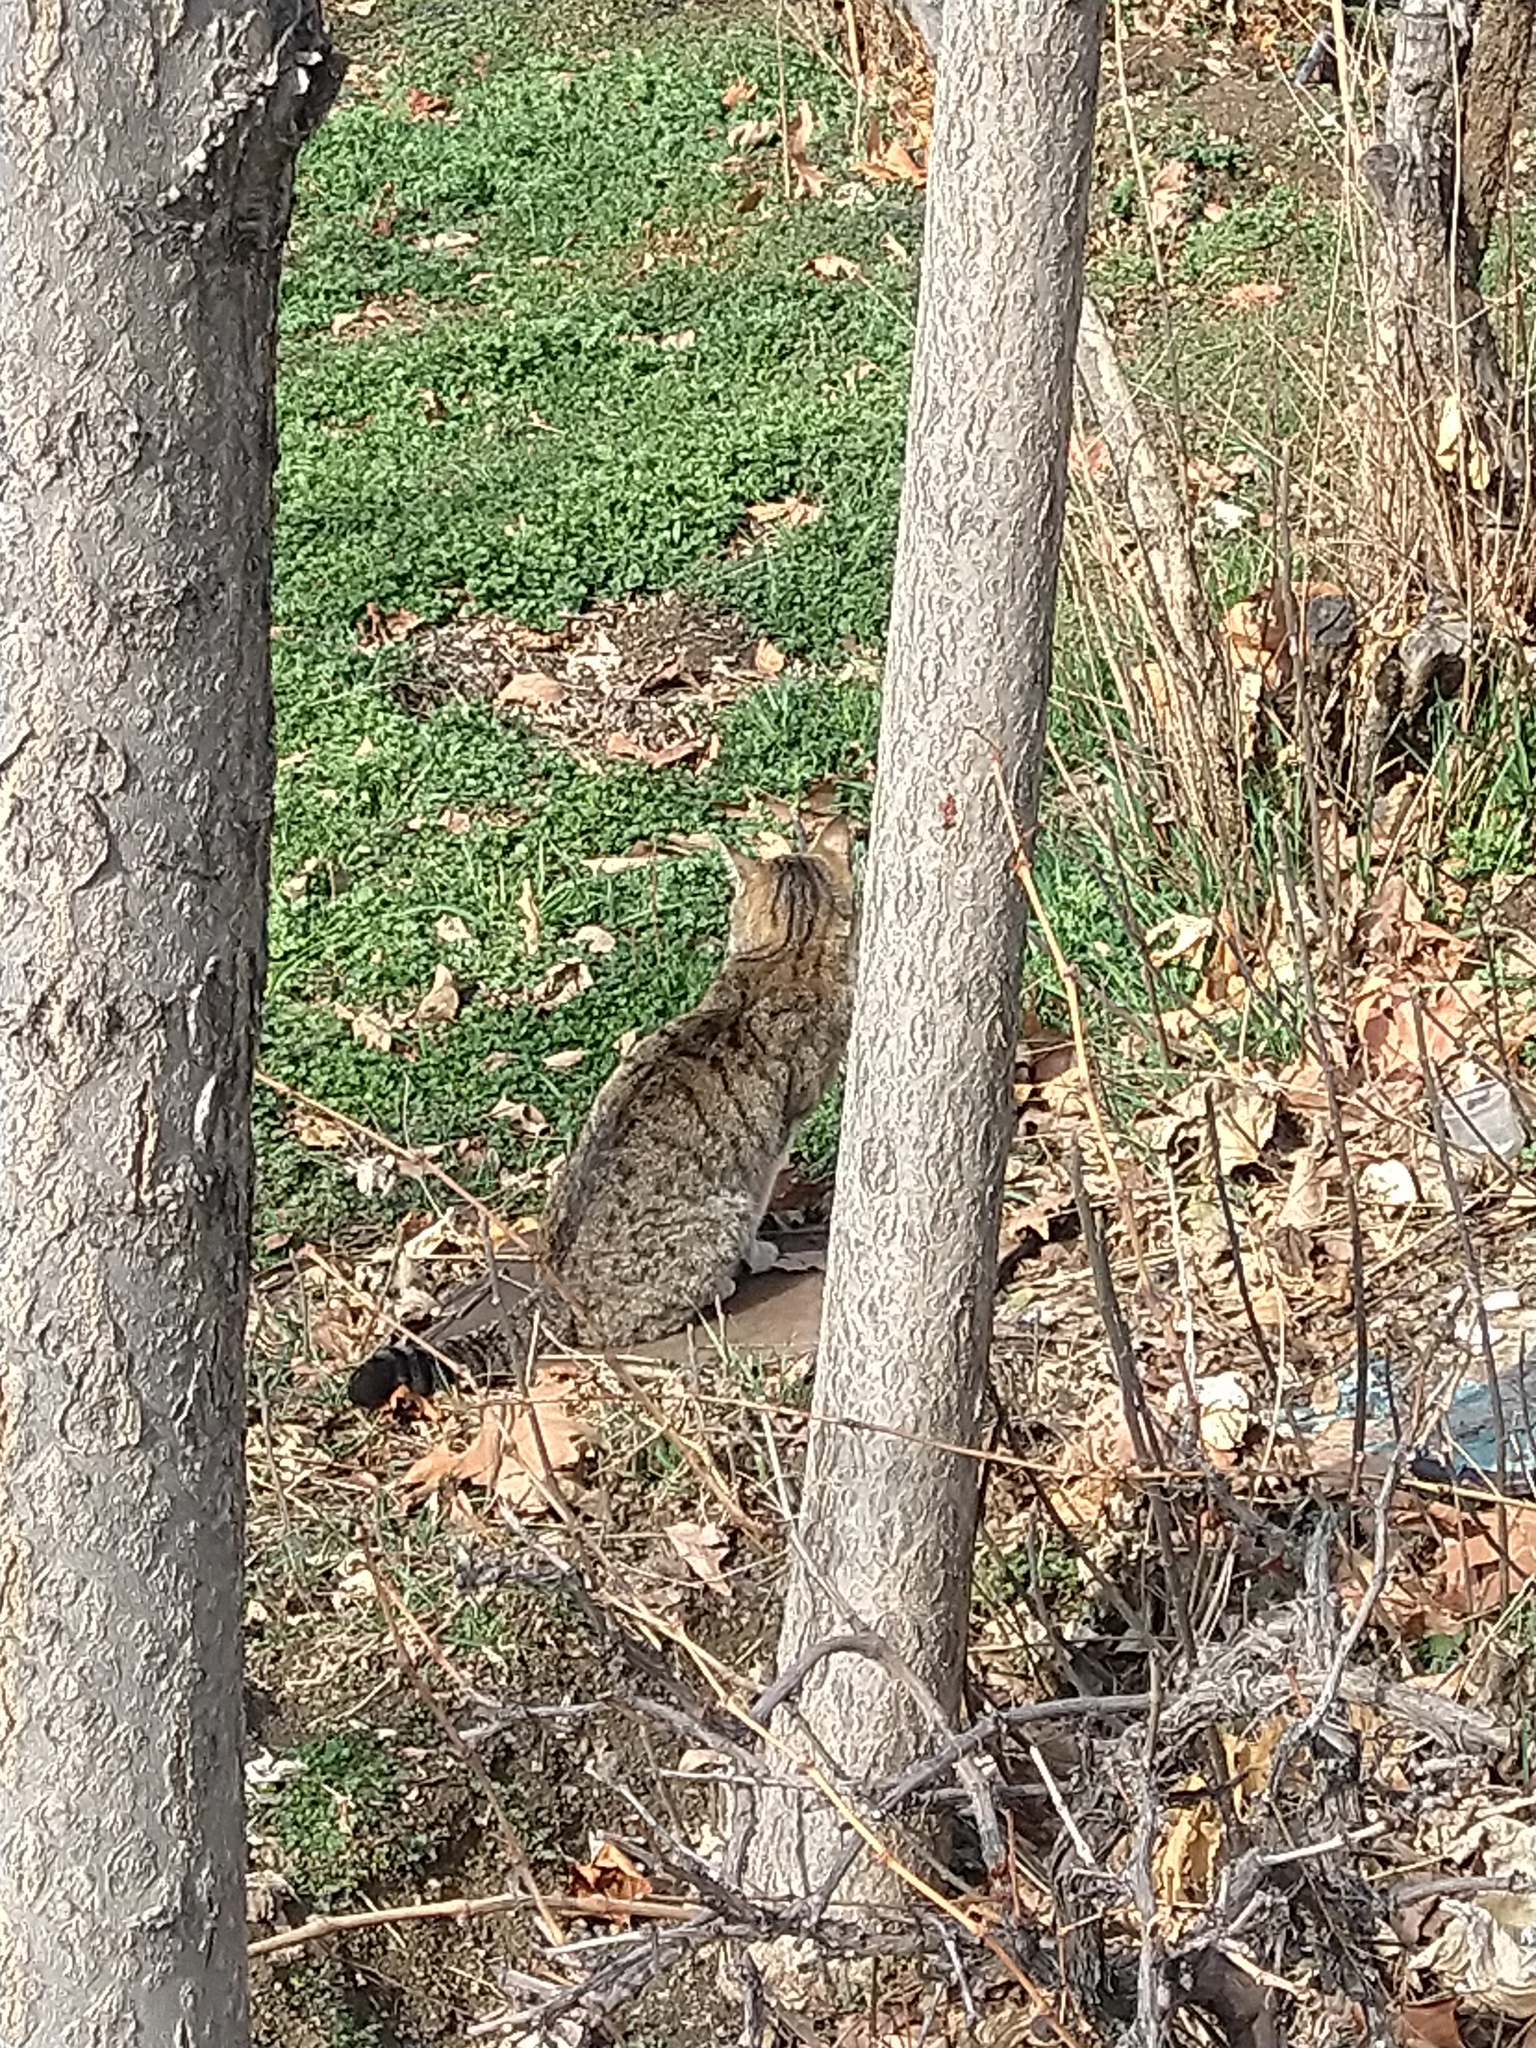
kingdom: Animalia
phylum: Chordata
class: Mammalia
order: Carnivora
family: Felidae
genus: Felis
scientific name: Felis catus
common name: Domestic cat
